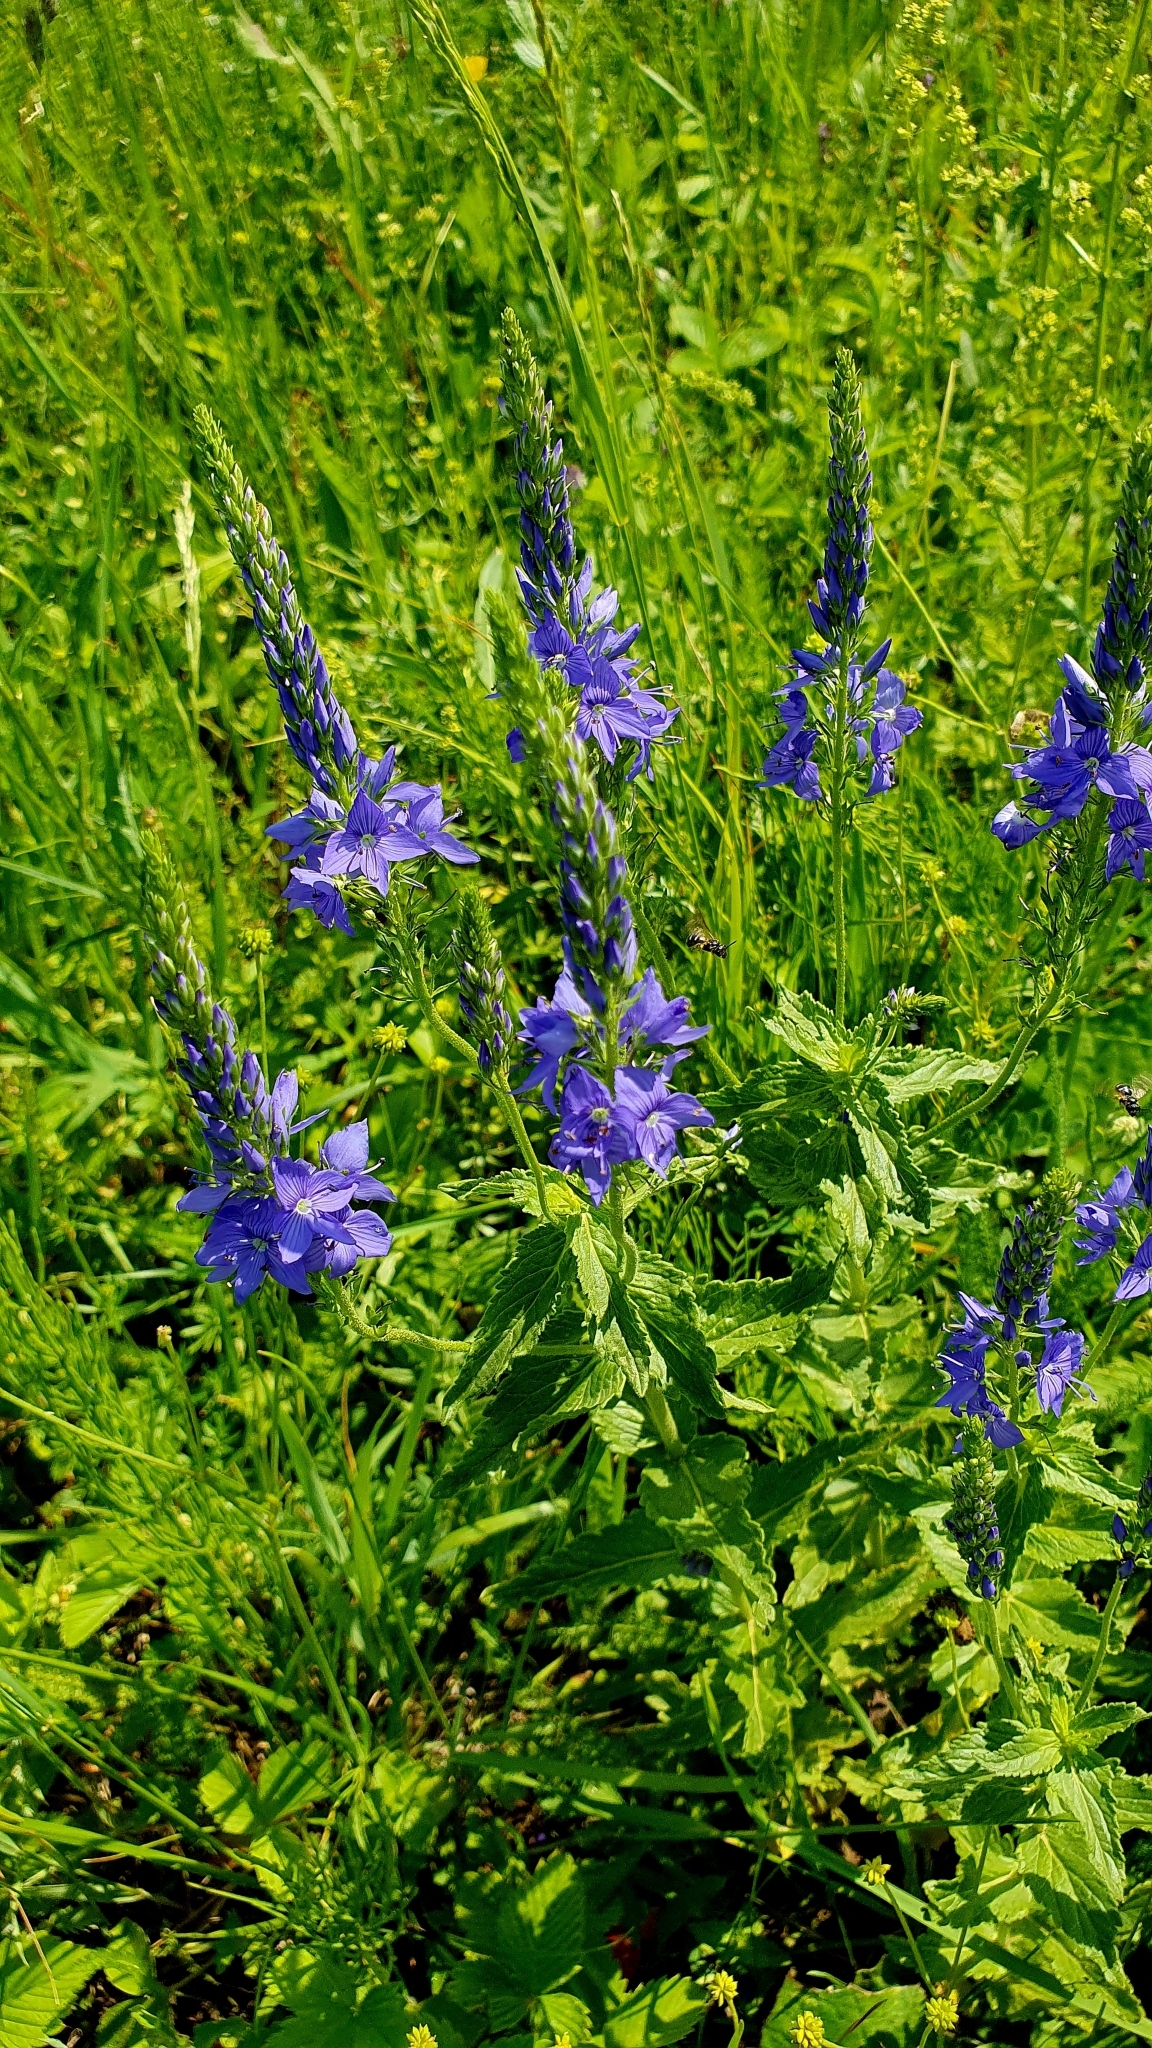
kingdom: Plantae
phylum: Tracheophyta
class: Magnoliopsida
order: Lamiales
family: Plantaginaceae
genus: Veronica
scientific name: Veronica teucrium
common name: Large speedwell
